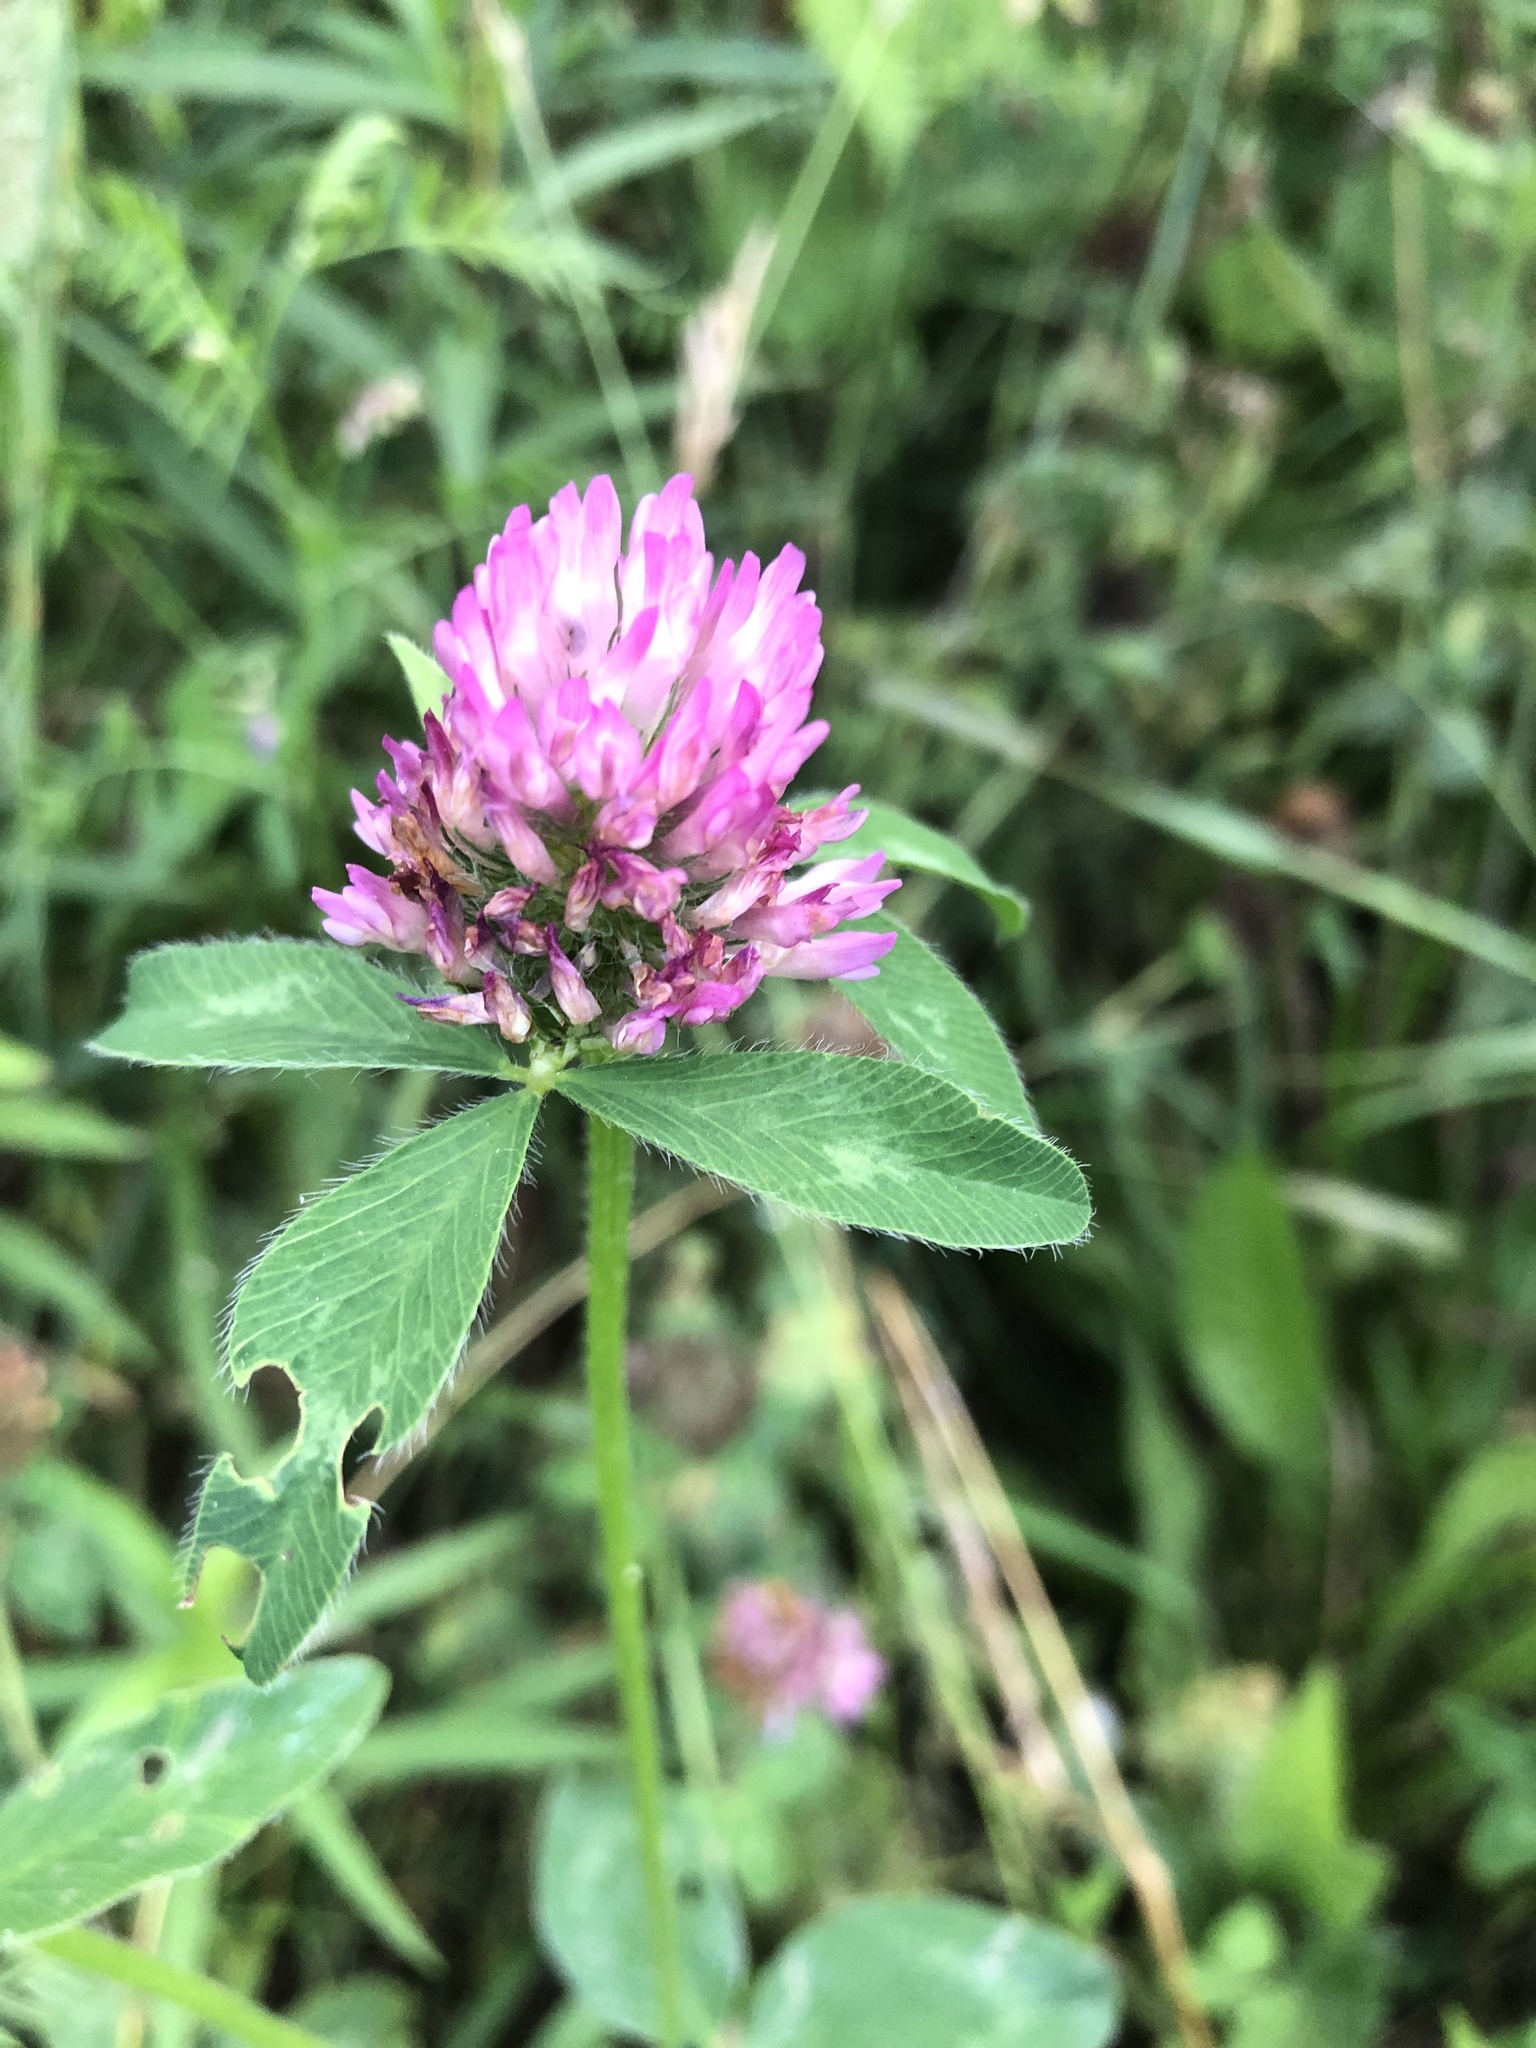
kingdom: Plantae
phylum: Tracheophyta
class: Magnoliopsida
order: Fabales
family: Fabaceae
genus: Trifolium
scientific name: Trifolium pratense
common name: Red clover
